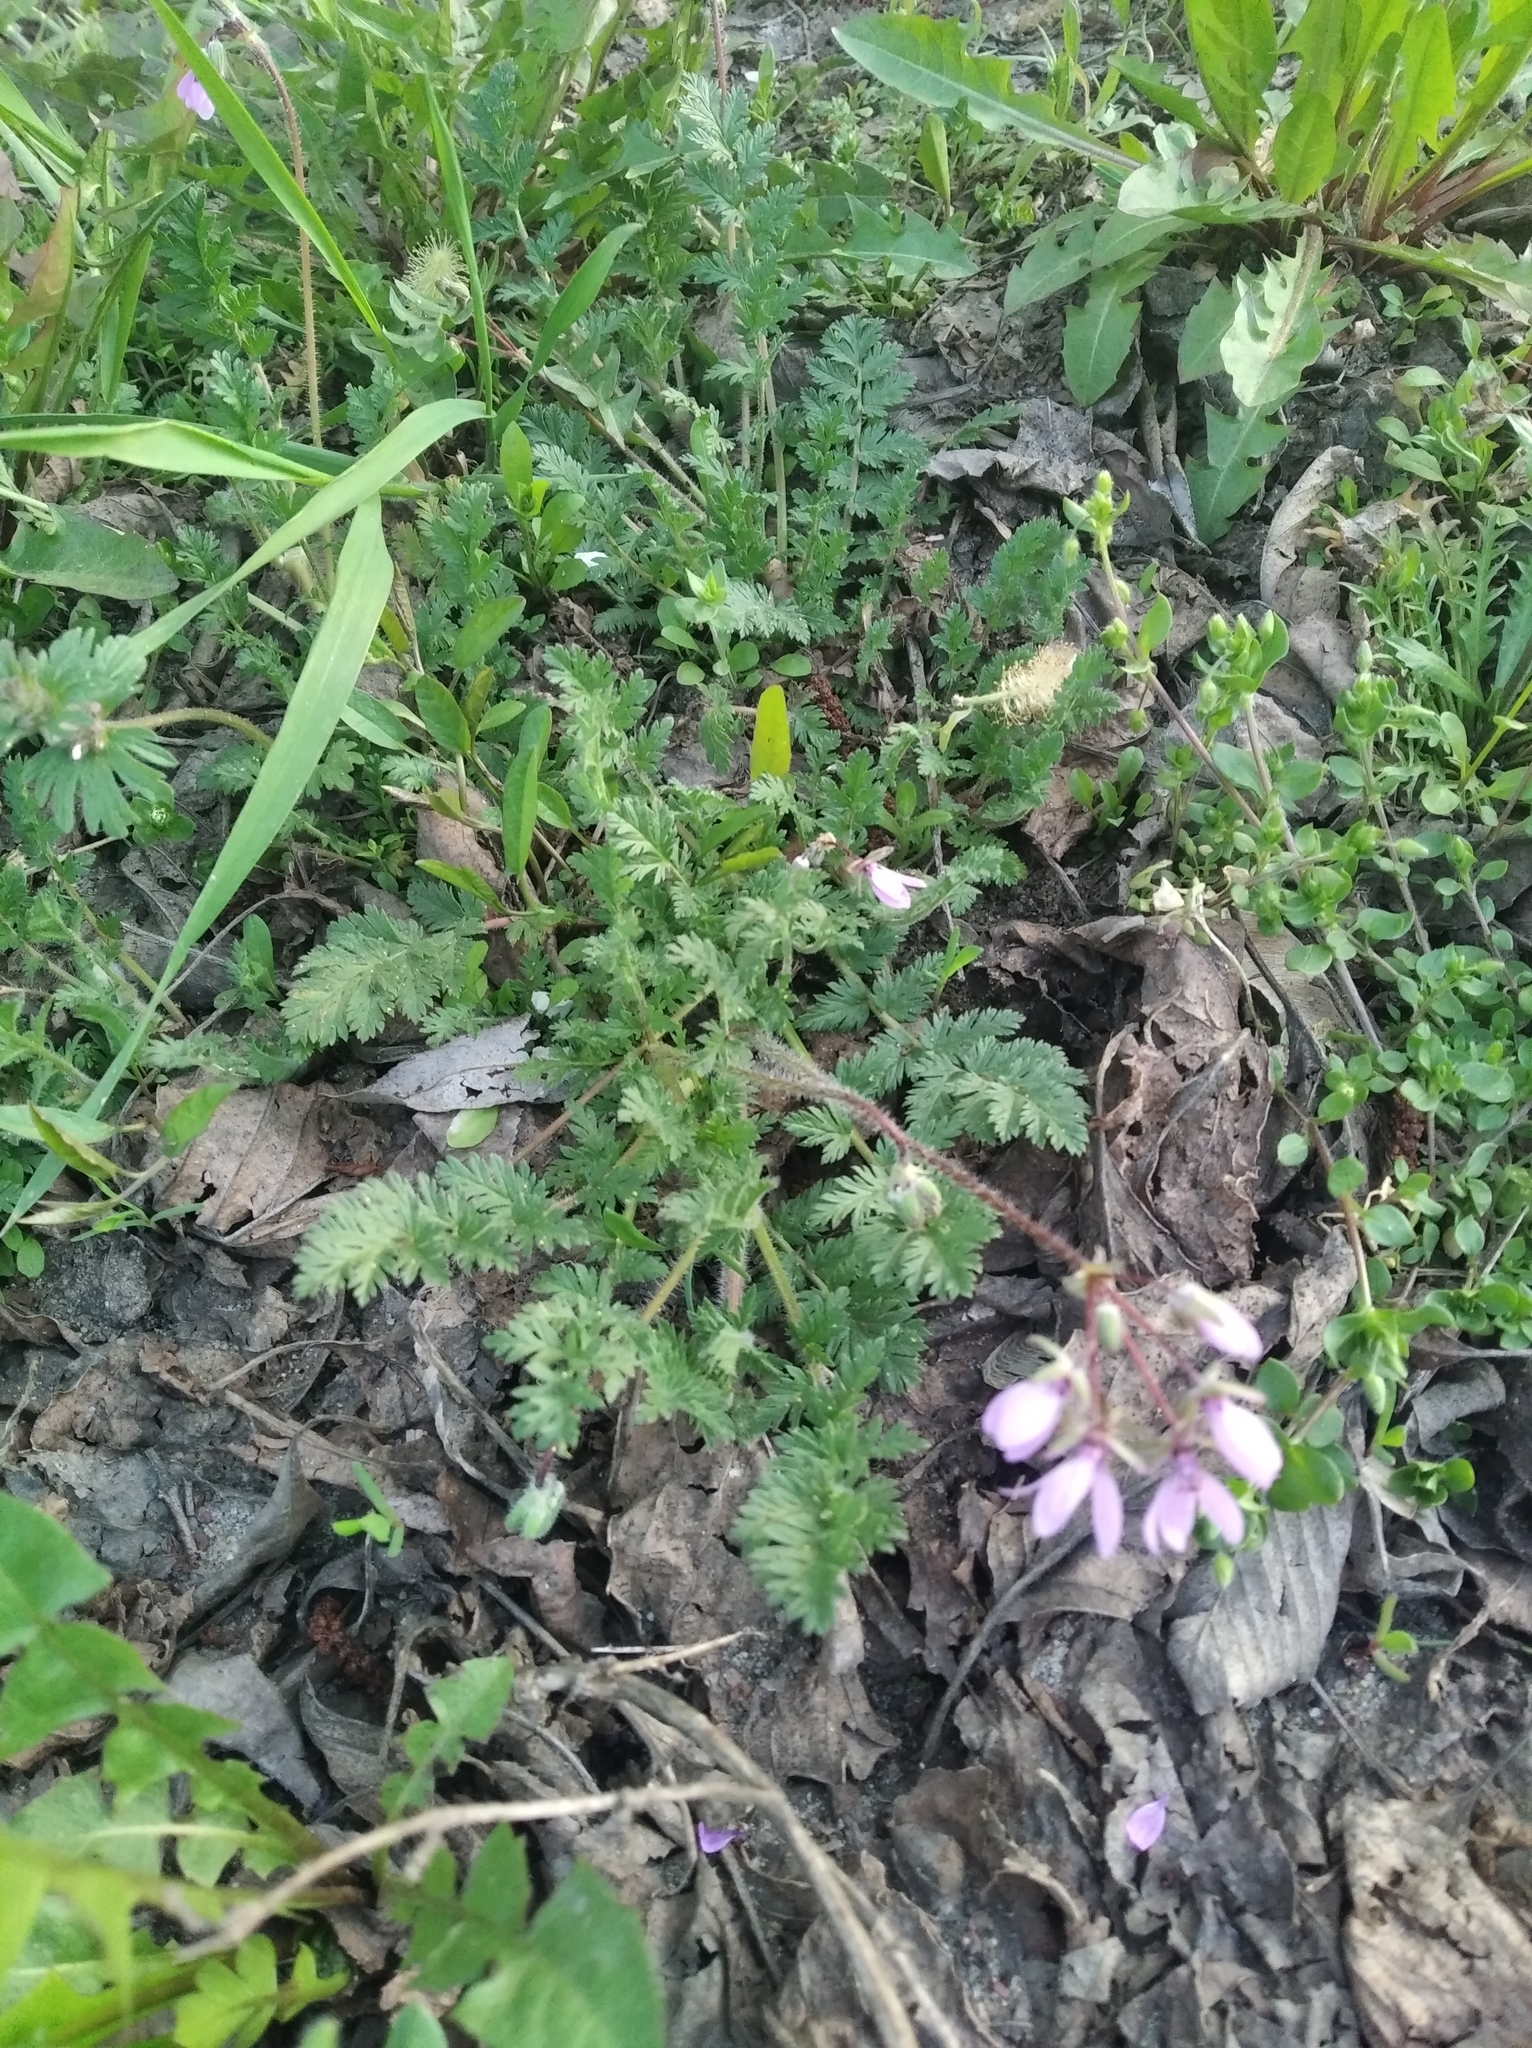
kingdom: Plantae
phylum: Tracheophyta
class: Magnoliopsida
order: Geraniales
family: Geraniaceae
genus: Erodium
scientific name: Erodium cicutarium
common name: Common stork's-bill
